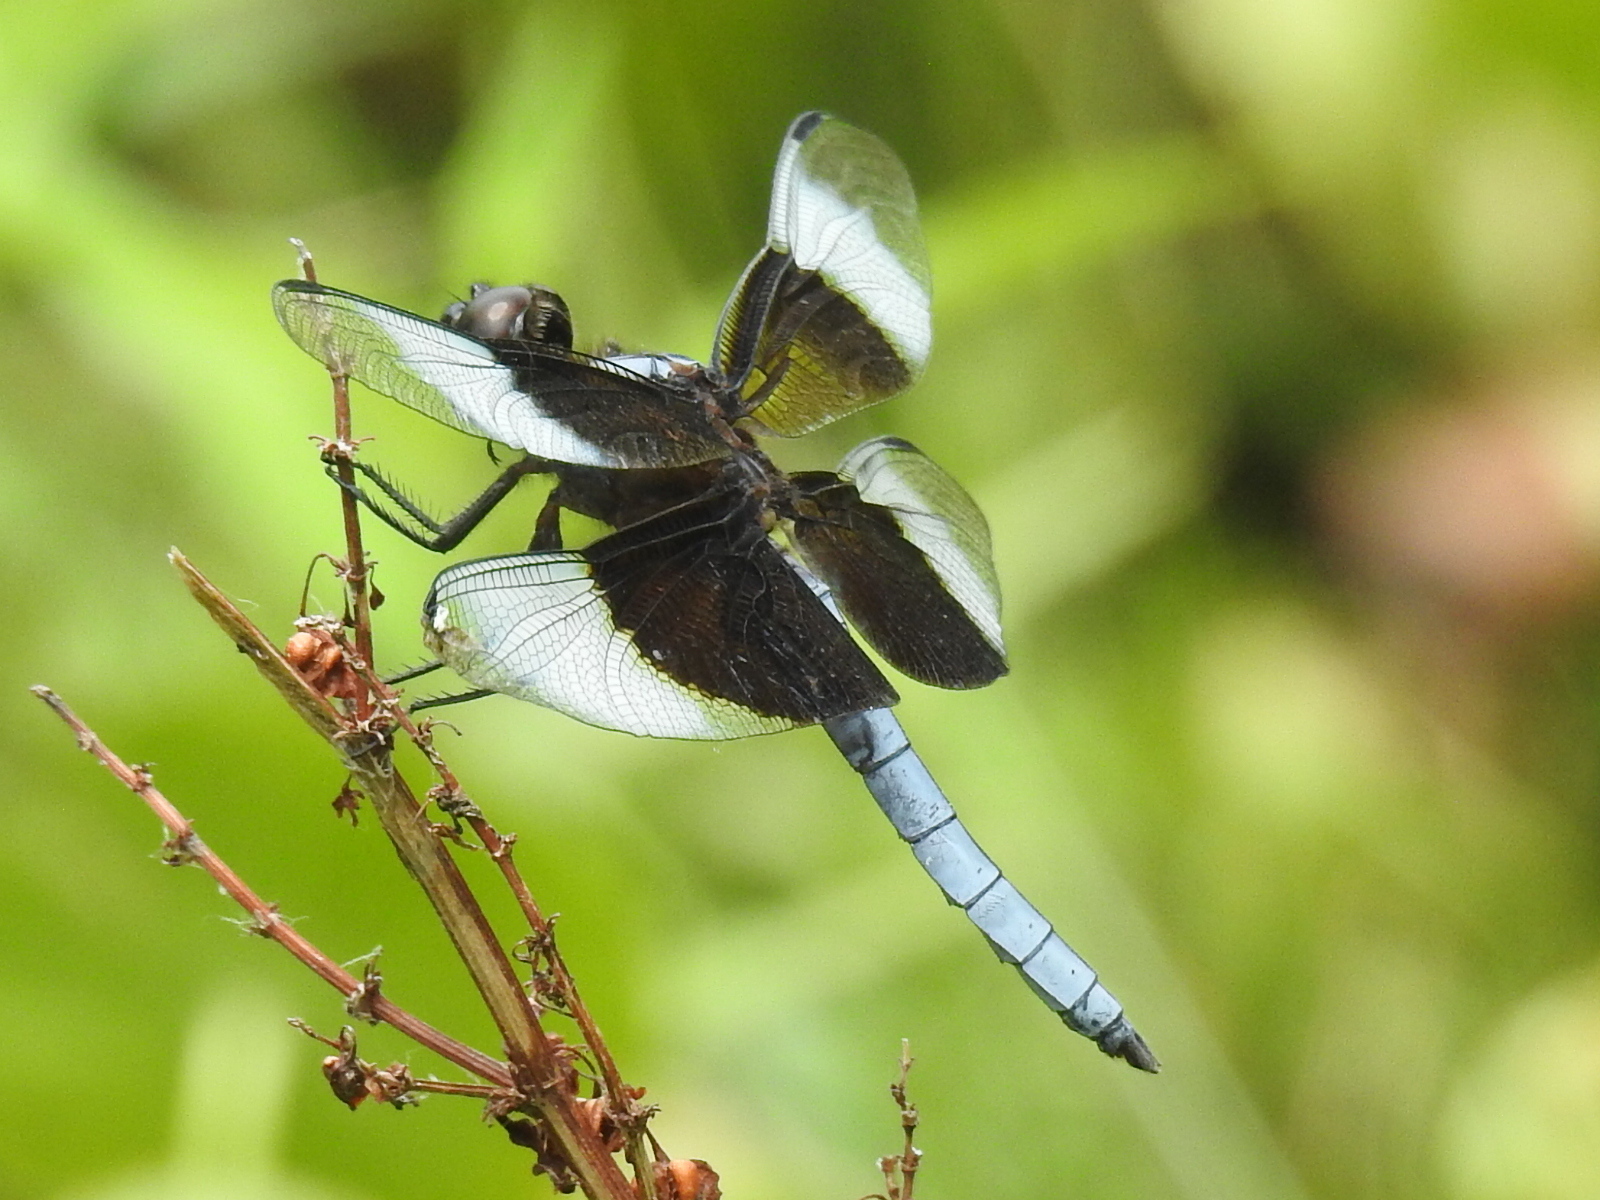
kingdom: Animalia
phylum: Arthropoda
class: Insecta
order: Odonata
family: Libellulidae
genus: Libellula
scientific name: Libellula luctuosa
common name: Widow skimmer
